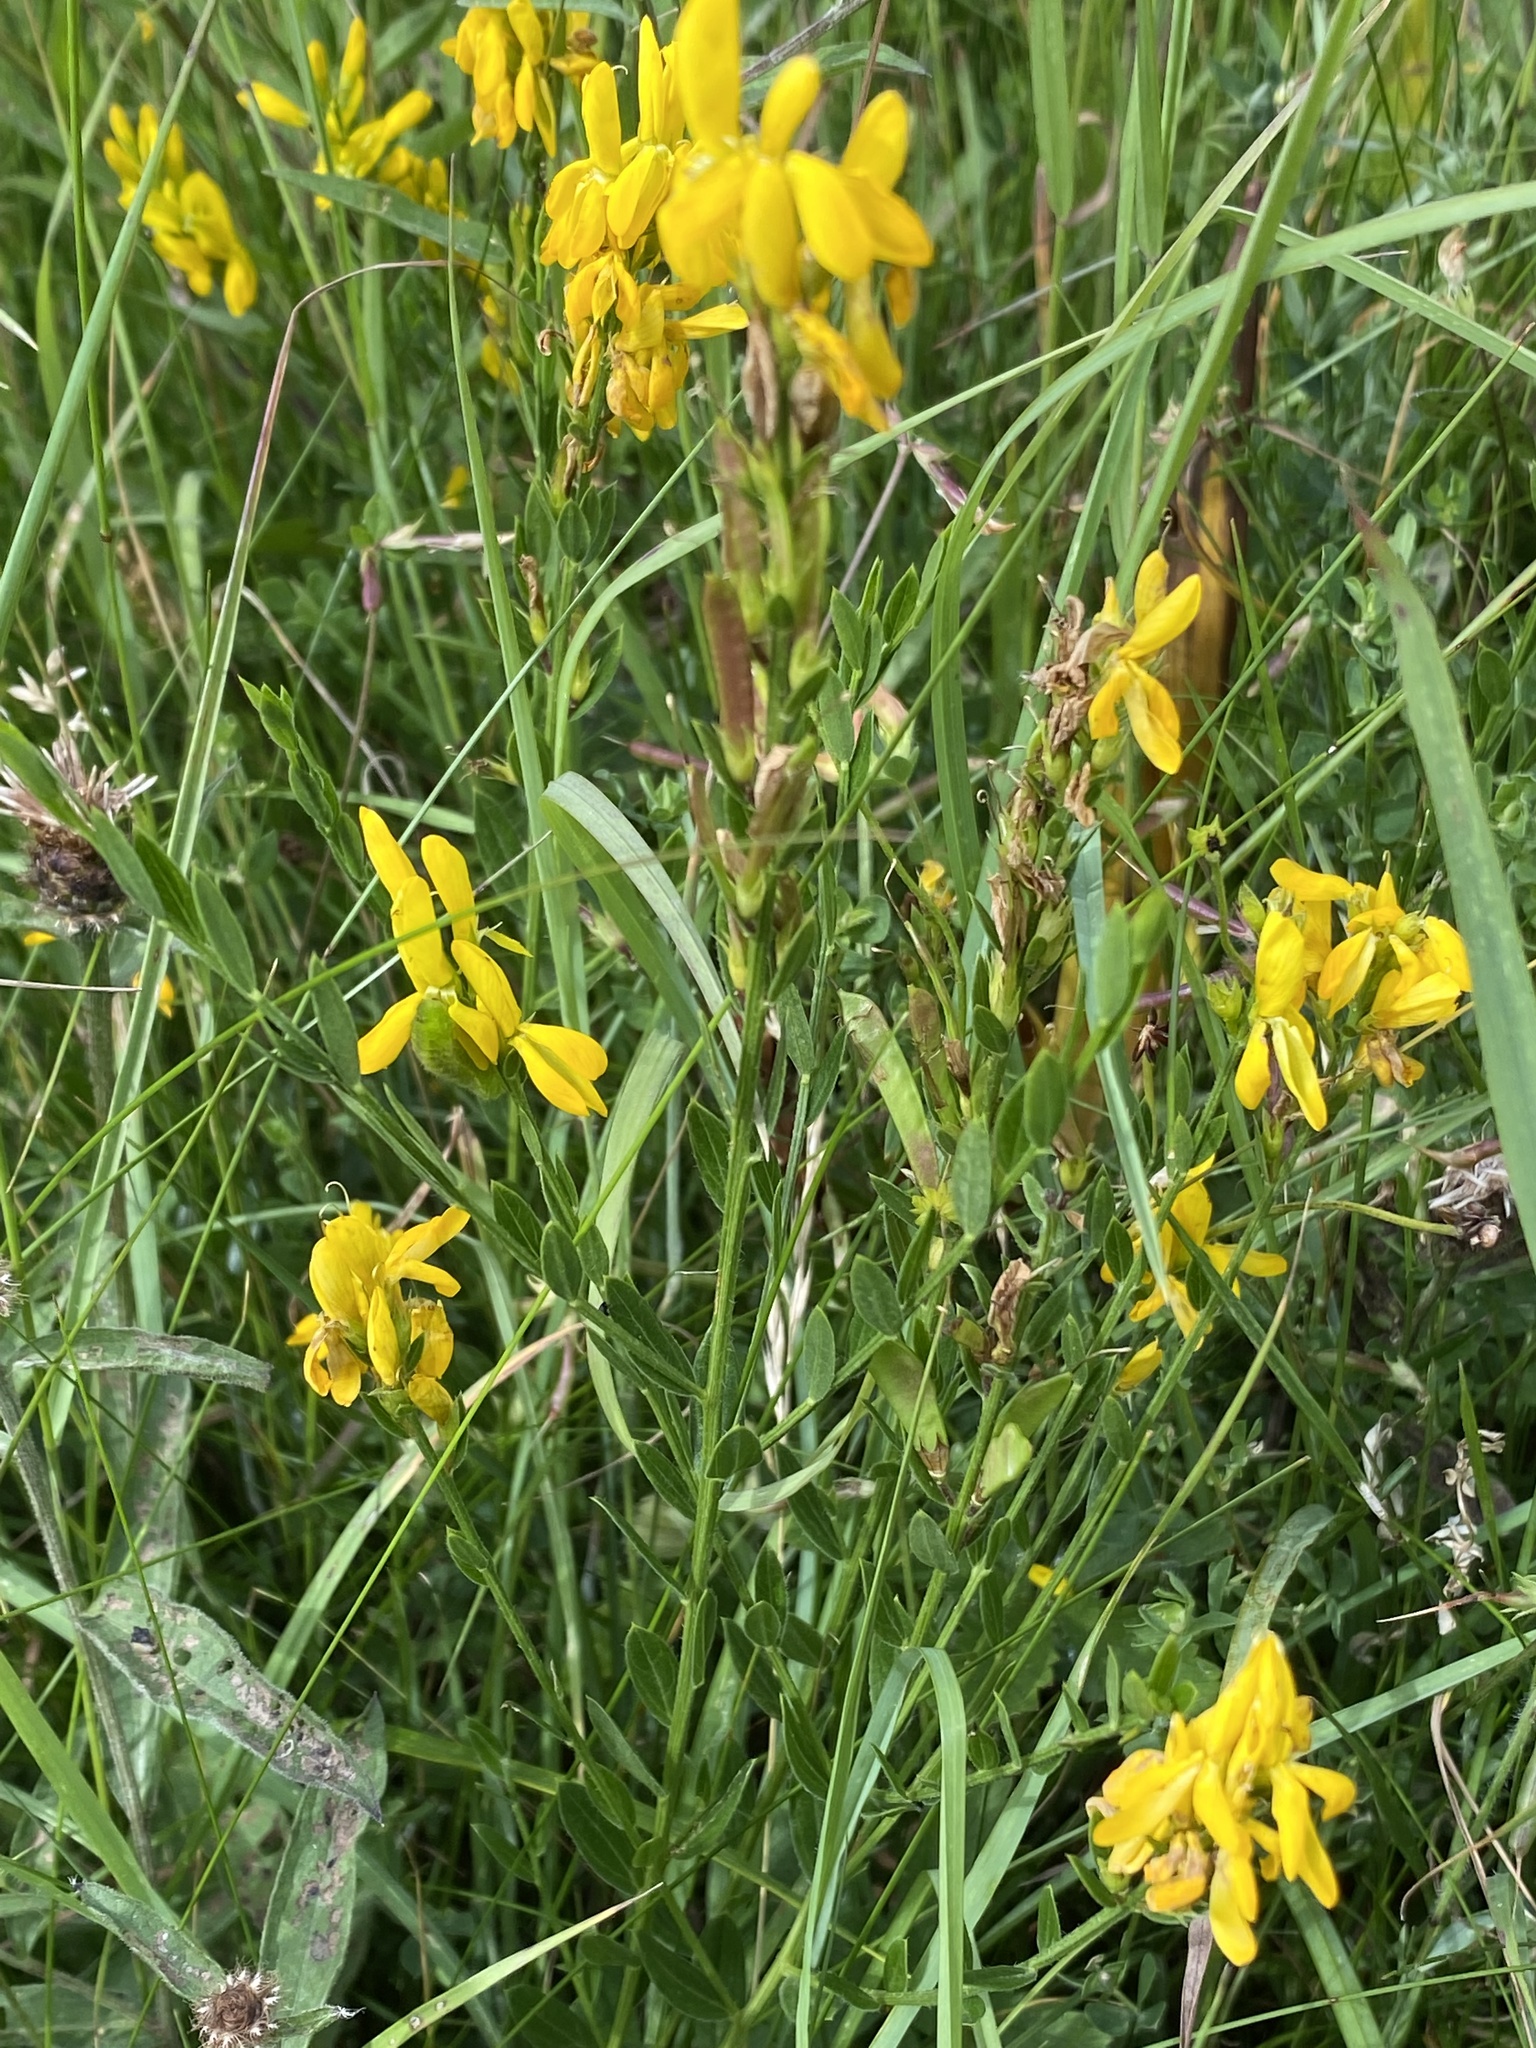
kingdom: Plantae
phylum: Tracheophyta
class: Magnoliopsida
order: Fabales
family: Fabaceae
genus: Genista
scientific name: Genista tinctoria
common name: Dyer's greenweed
